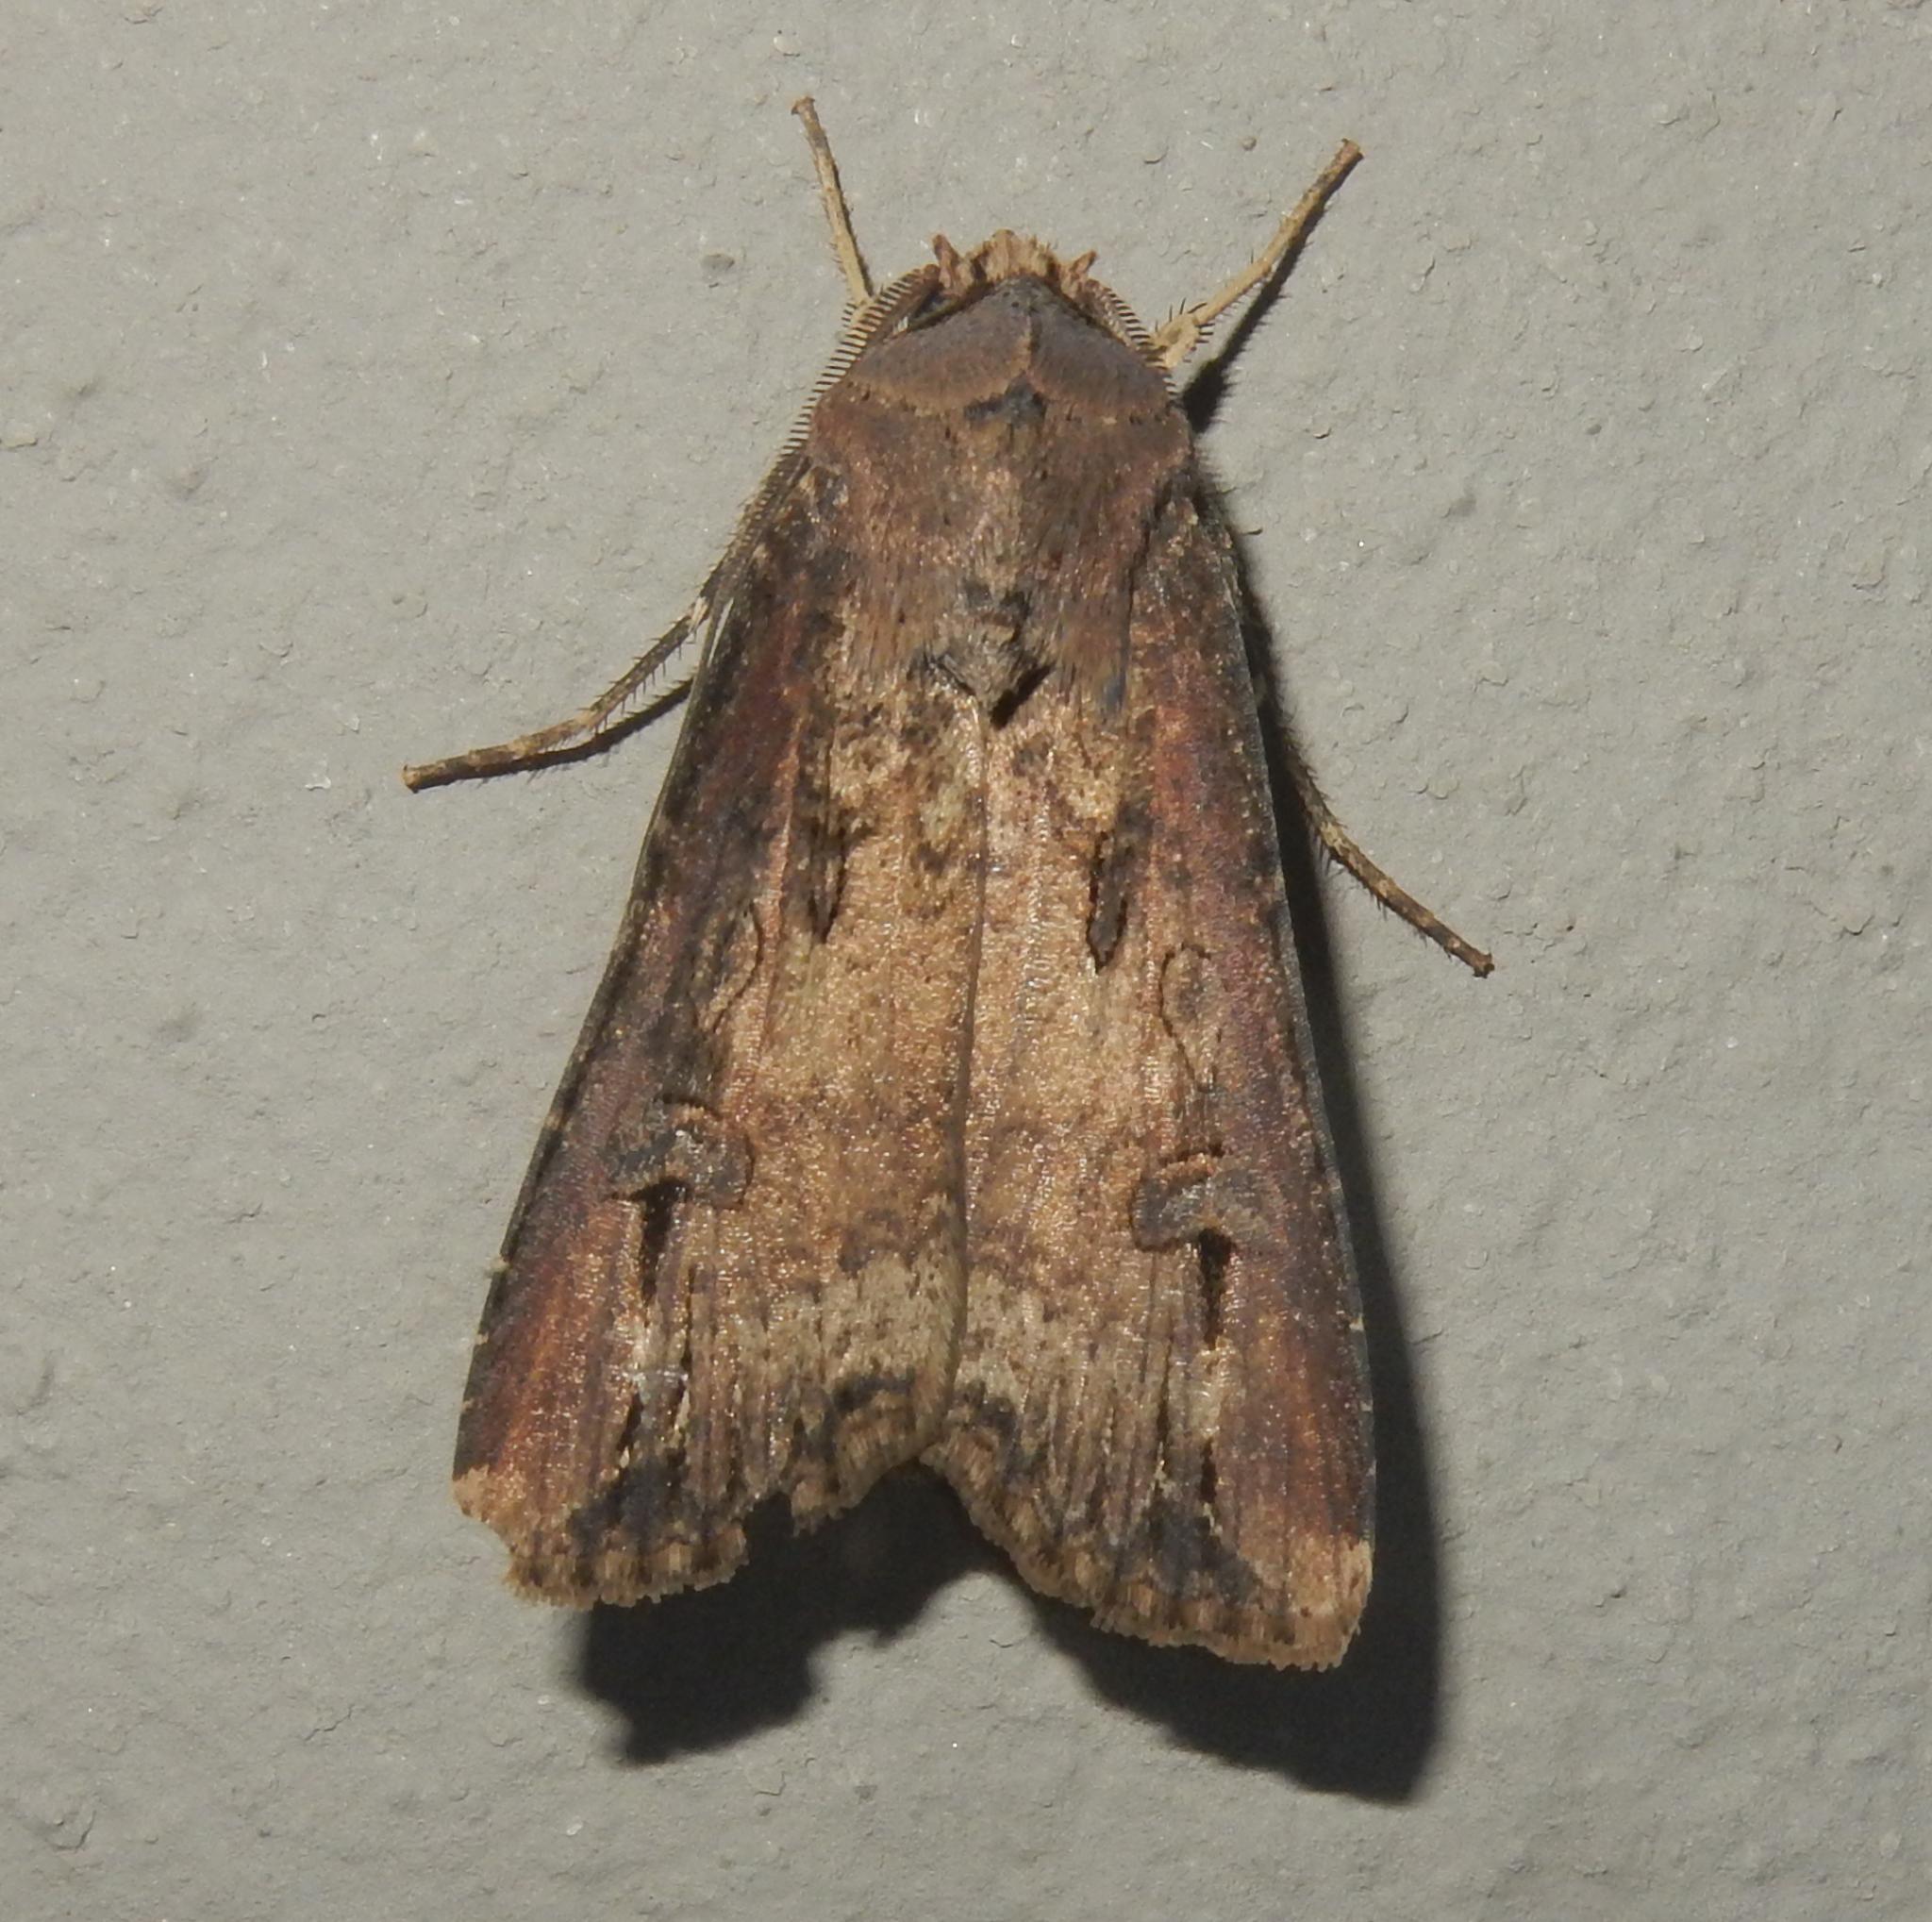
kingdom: Animalia
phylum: Arthropoda
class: Insecta
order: Lepidoptera
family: Noctuidae
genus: Agrotis
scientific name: Agrotis ipsilon
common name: Dark sword-grass
